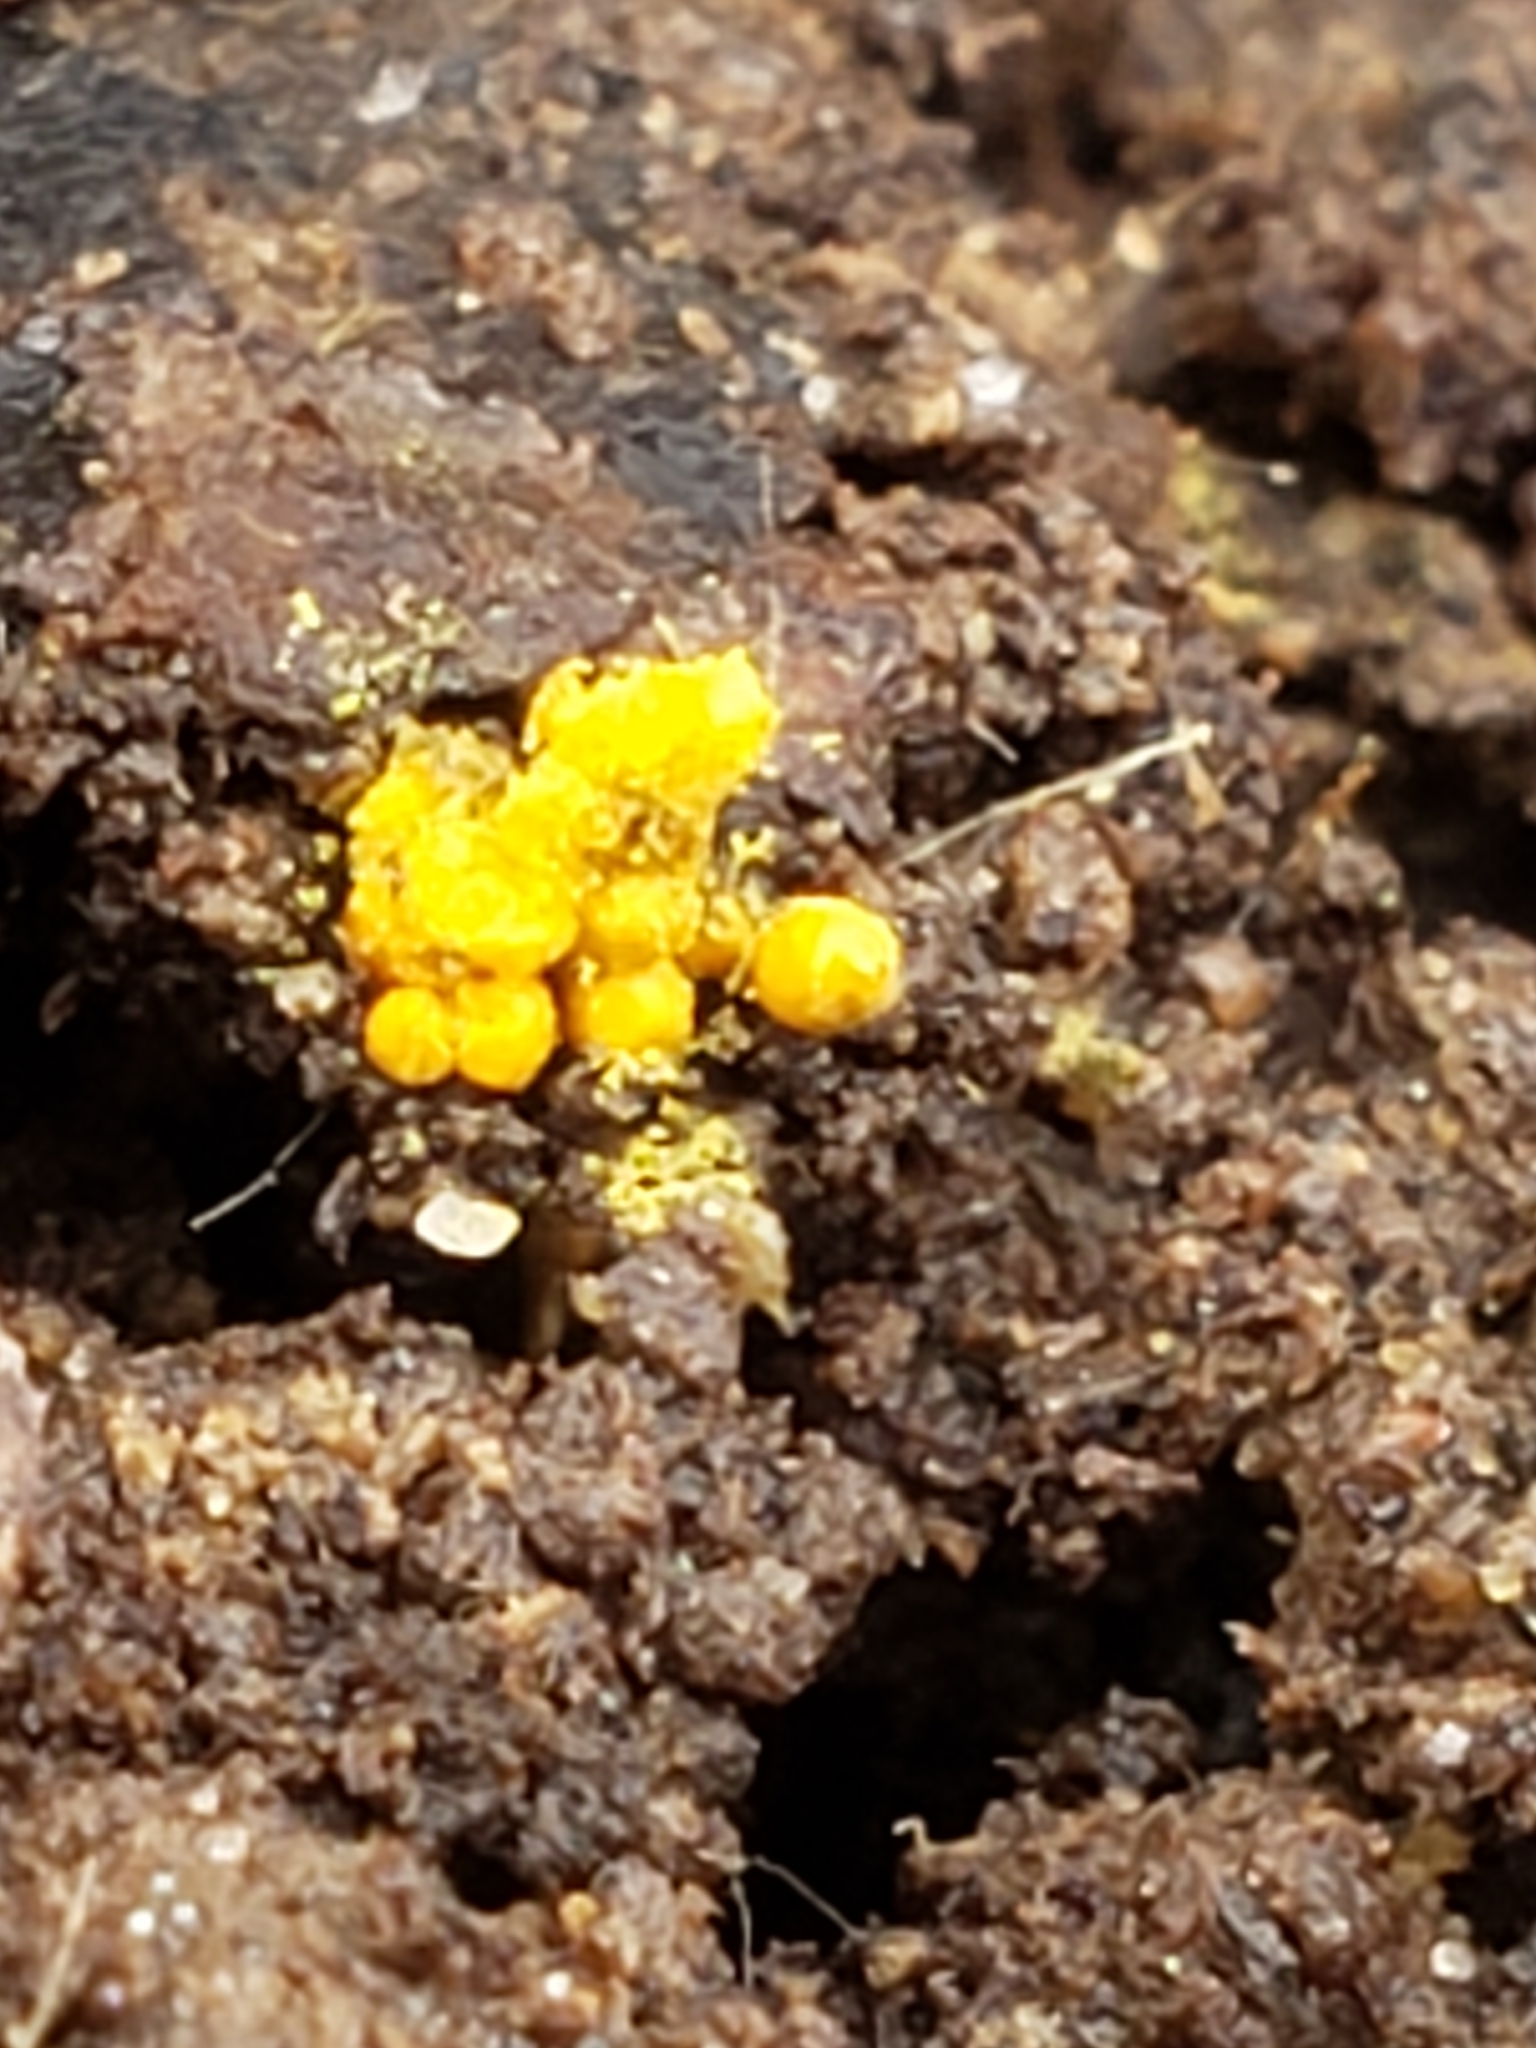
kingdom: Protozoa
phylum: Mycetozoa
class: Myxomycetes
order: Trichiales
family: Arcyriaceae
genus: Hemitrichia
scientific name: Hemitrichia serpula
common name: Pretzel slime mold
